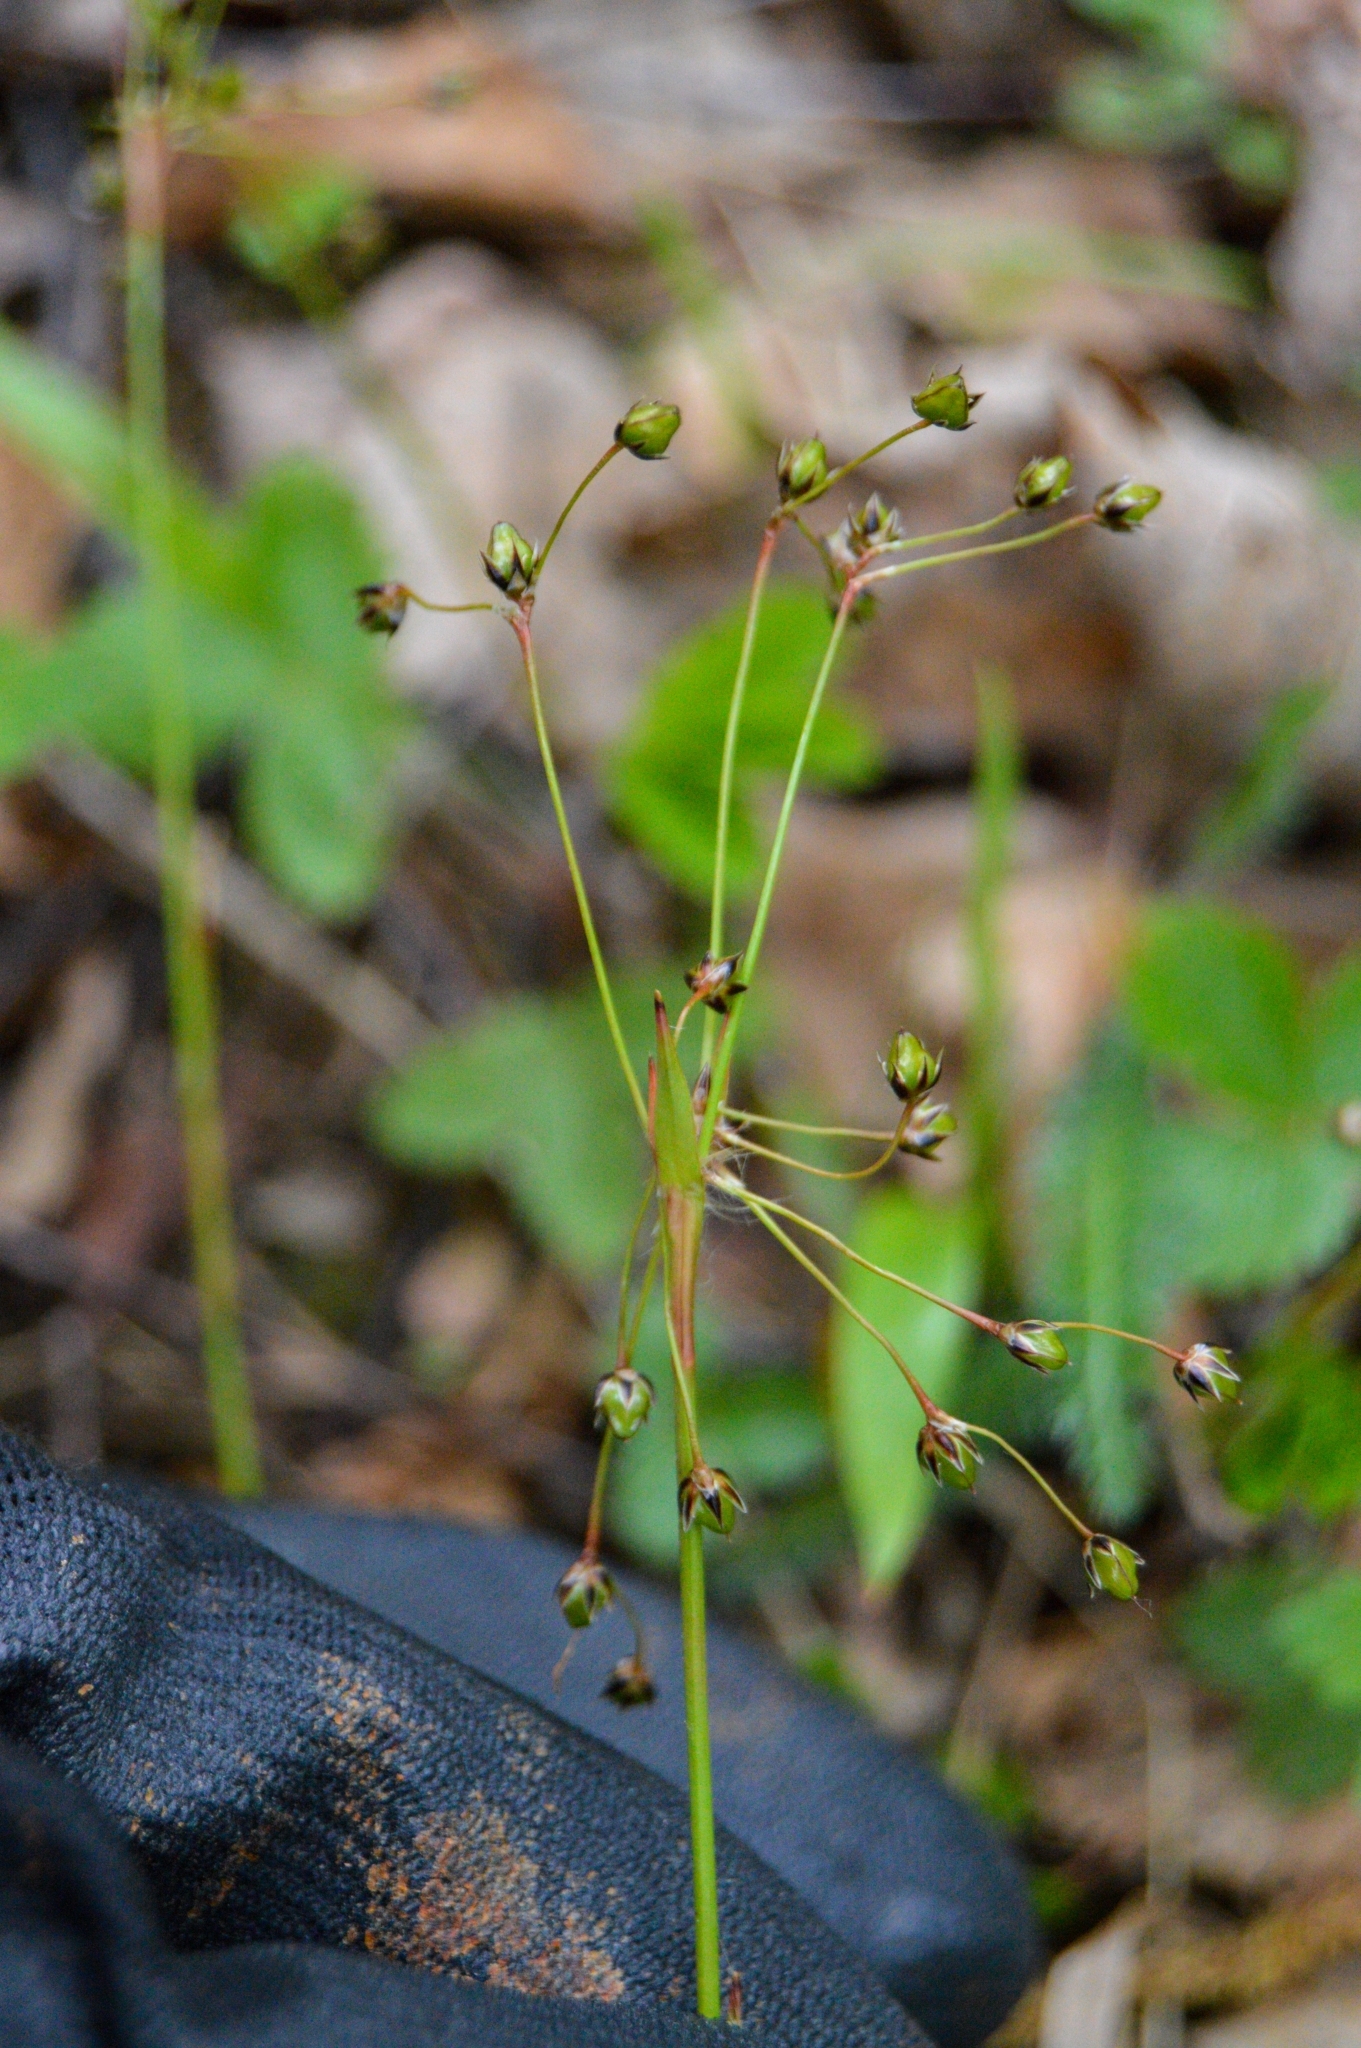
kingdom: Plantae
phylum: Tracheophyta
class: Liliopsida
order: Poales
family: Juncaceae
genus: Luzula
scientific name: Luzula pilosa
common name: Hairy wood-rush
